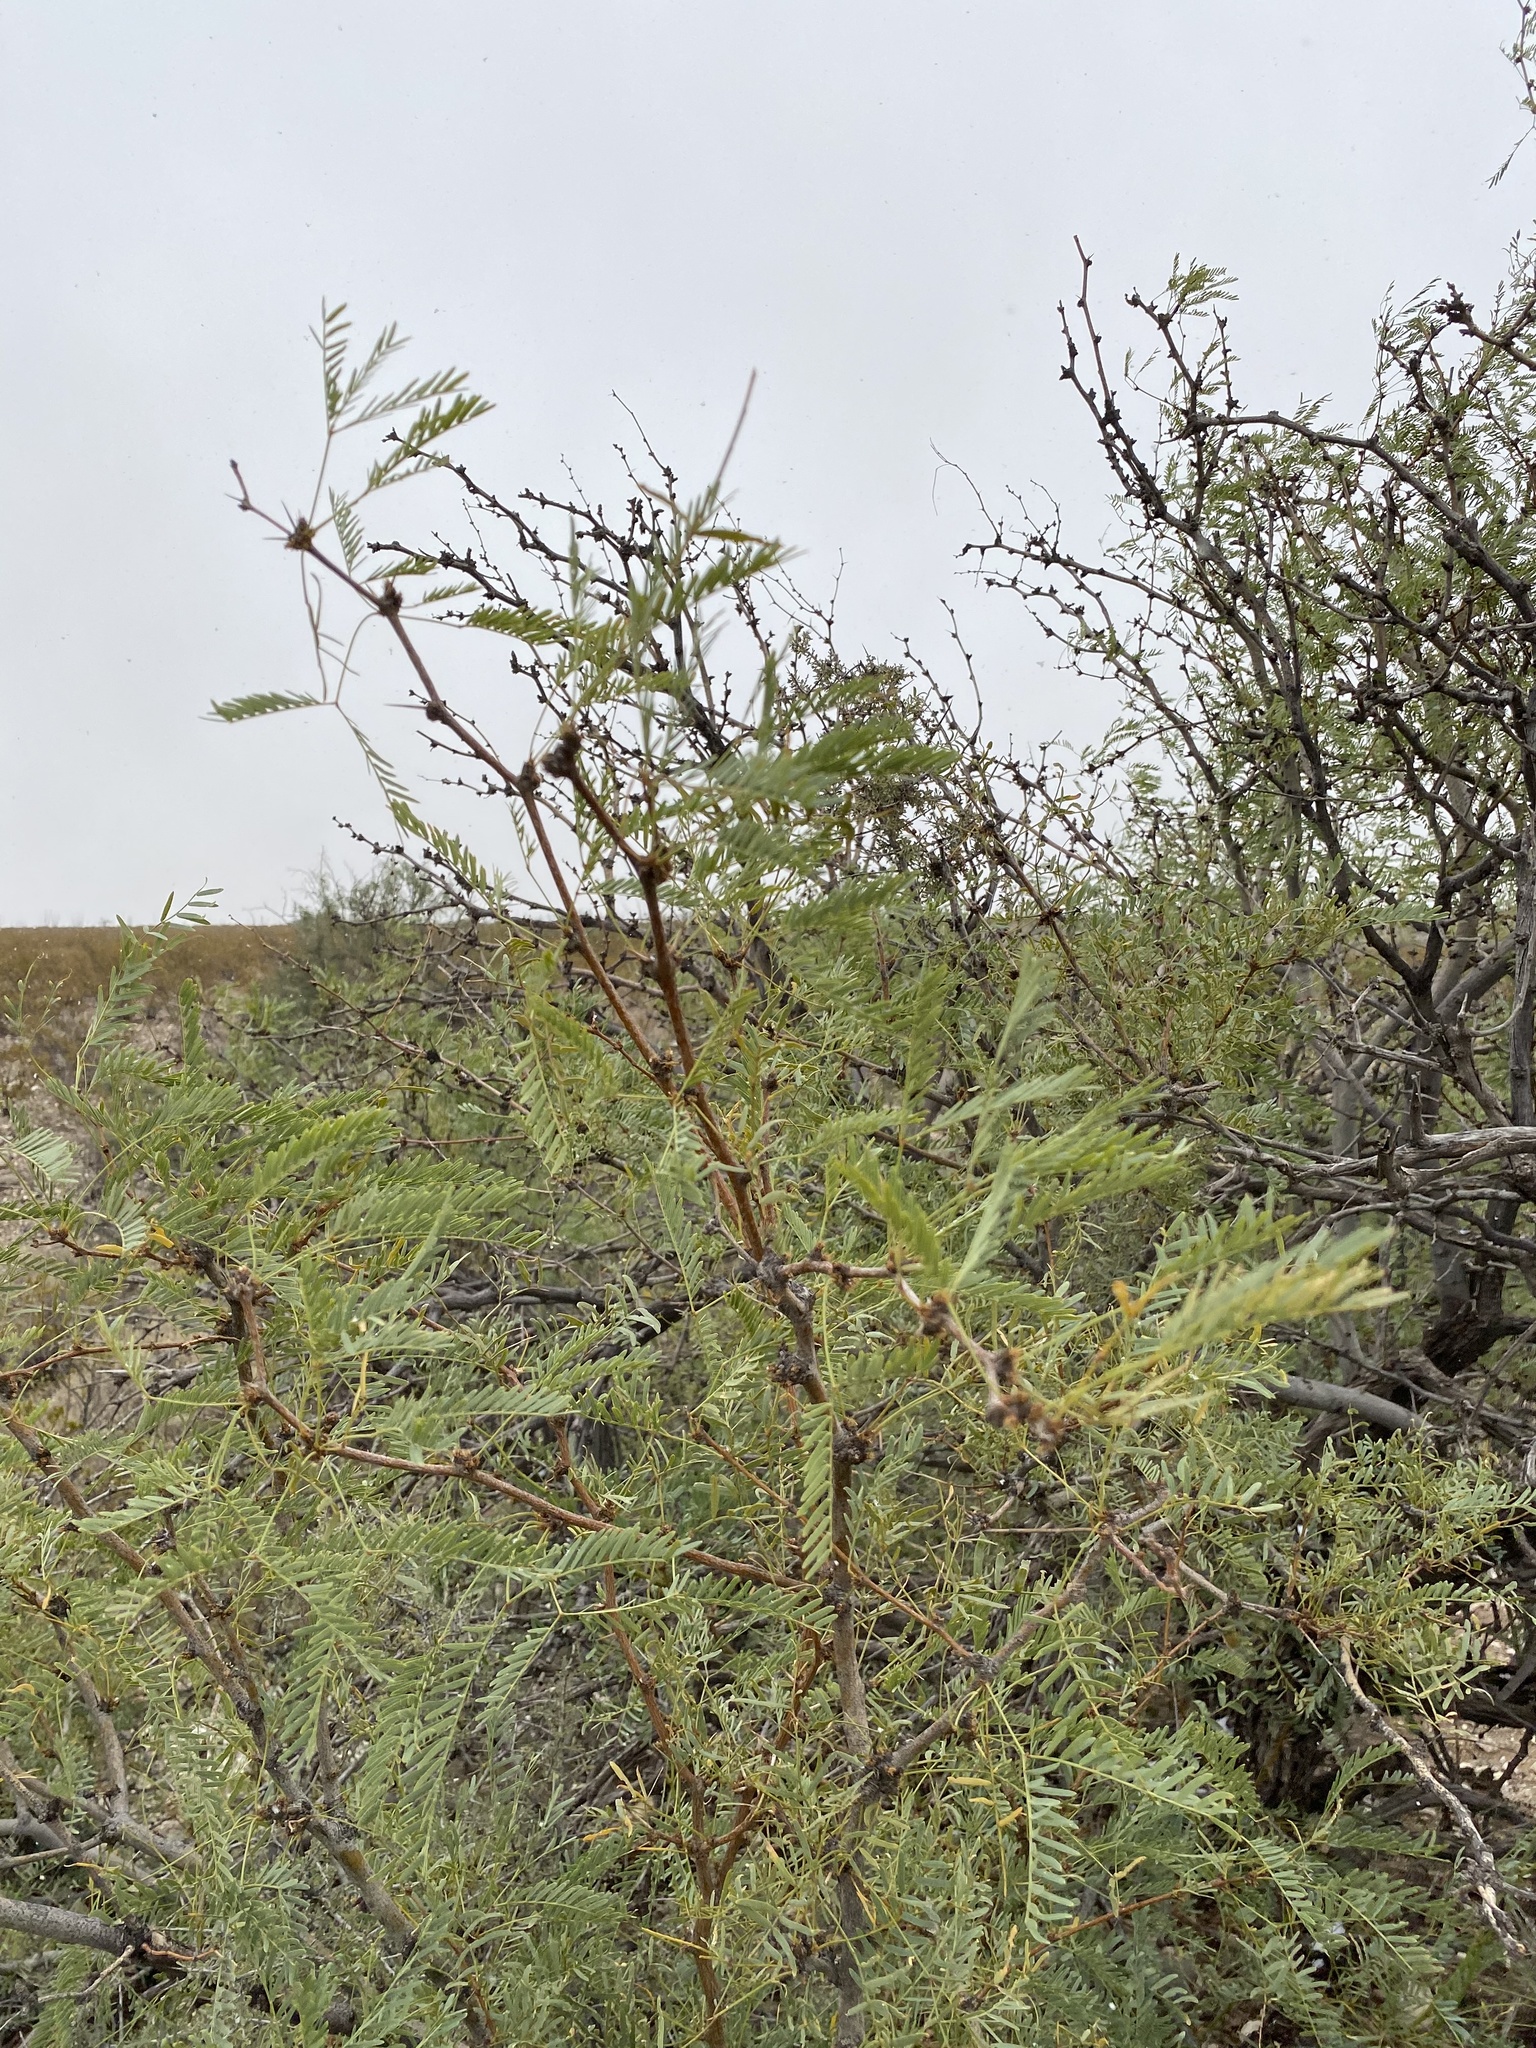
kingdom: Plantae
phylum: Tracheophyta
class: Magnoliopsida
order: Fabales
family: Fabaceae
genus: Prosopis
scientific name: Prosopis glandulosa
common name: Honey mesquite
